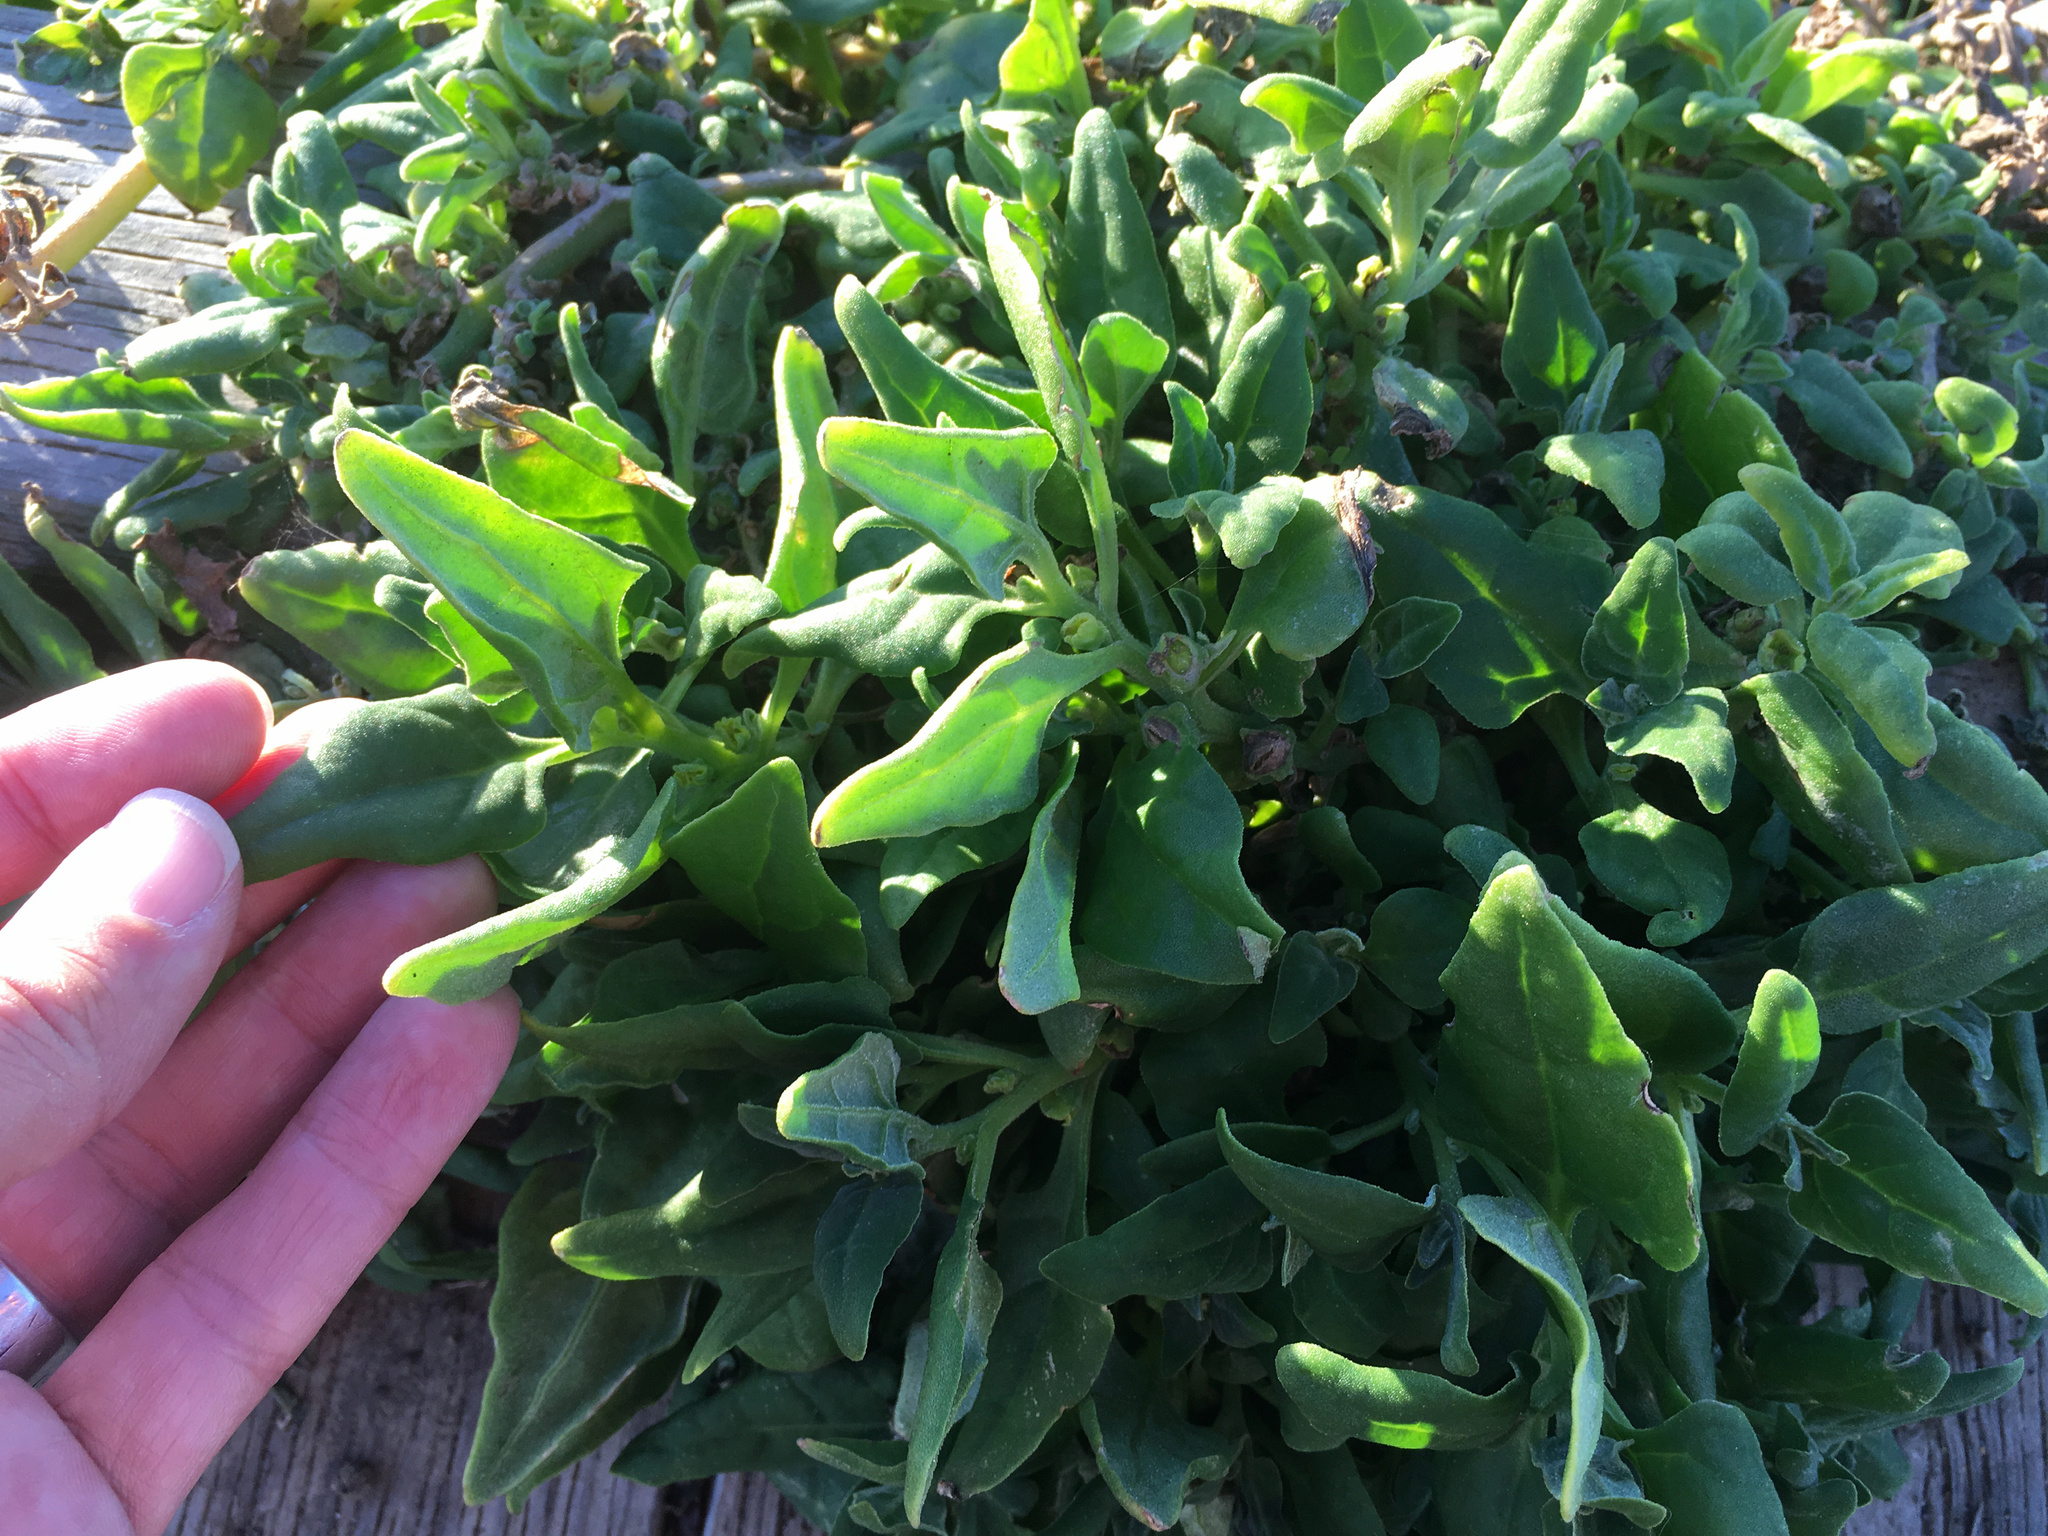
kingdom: Plantae
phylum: Tracheophyta
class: Magnoliopsida
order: Caryophyllales
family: Aizoaceae
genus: Tetragonia
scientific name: Tetragonia tetragonoides
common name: New zealand-spinach
